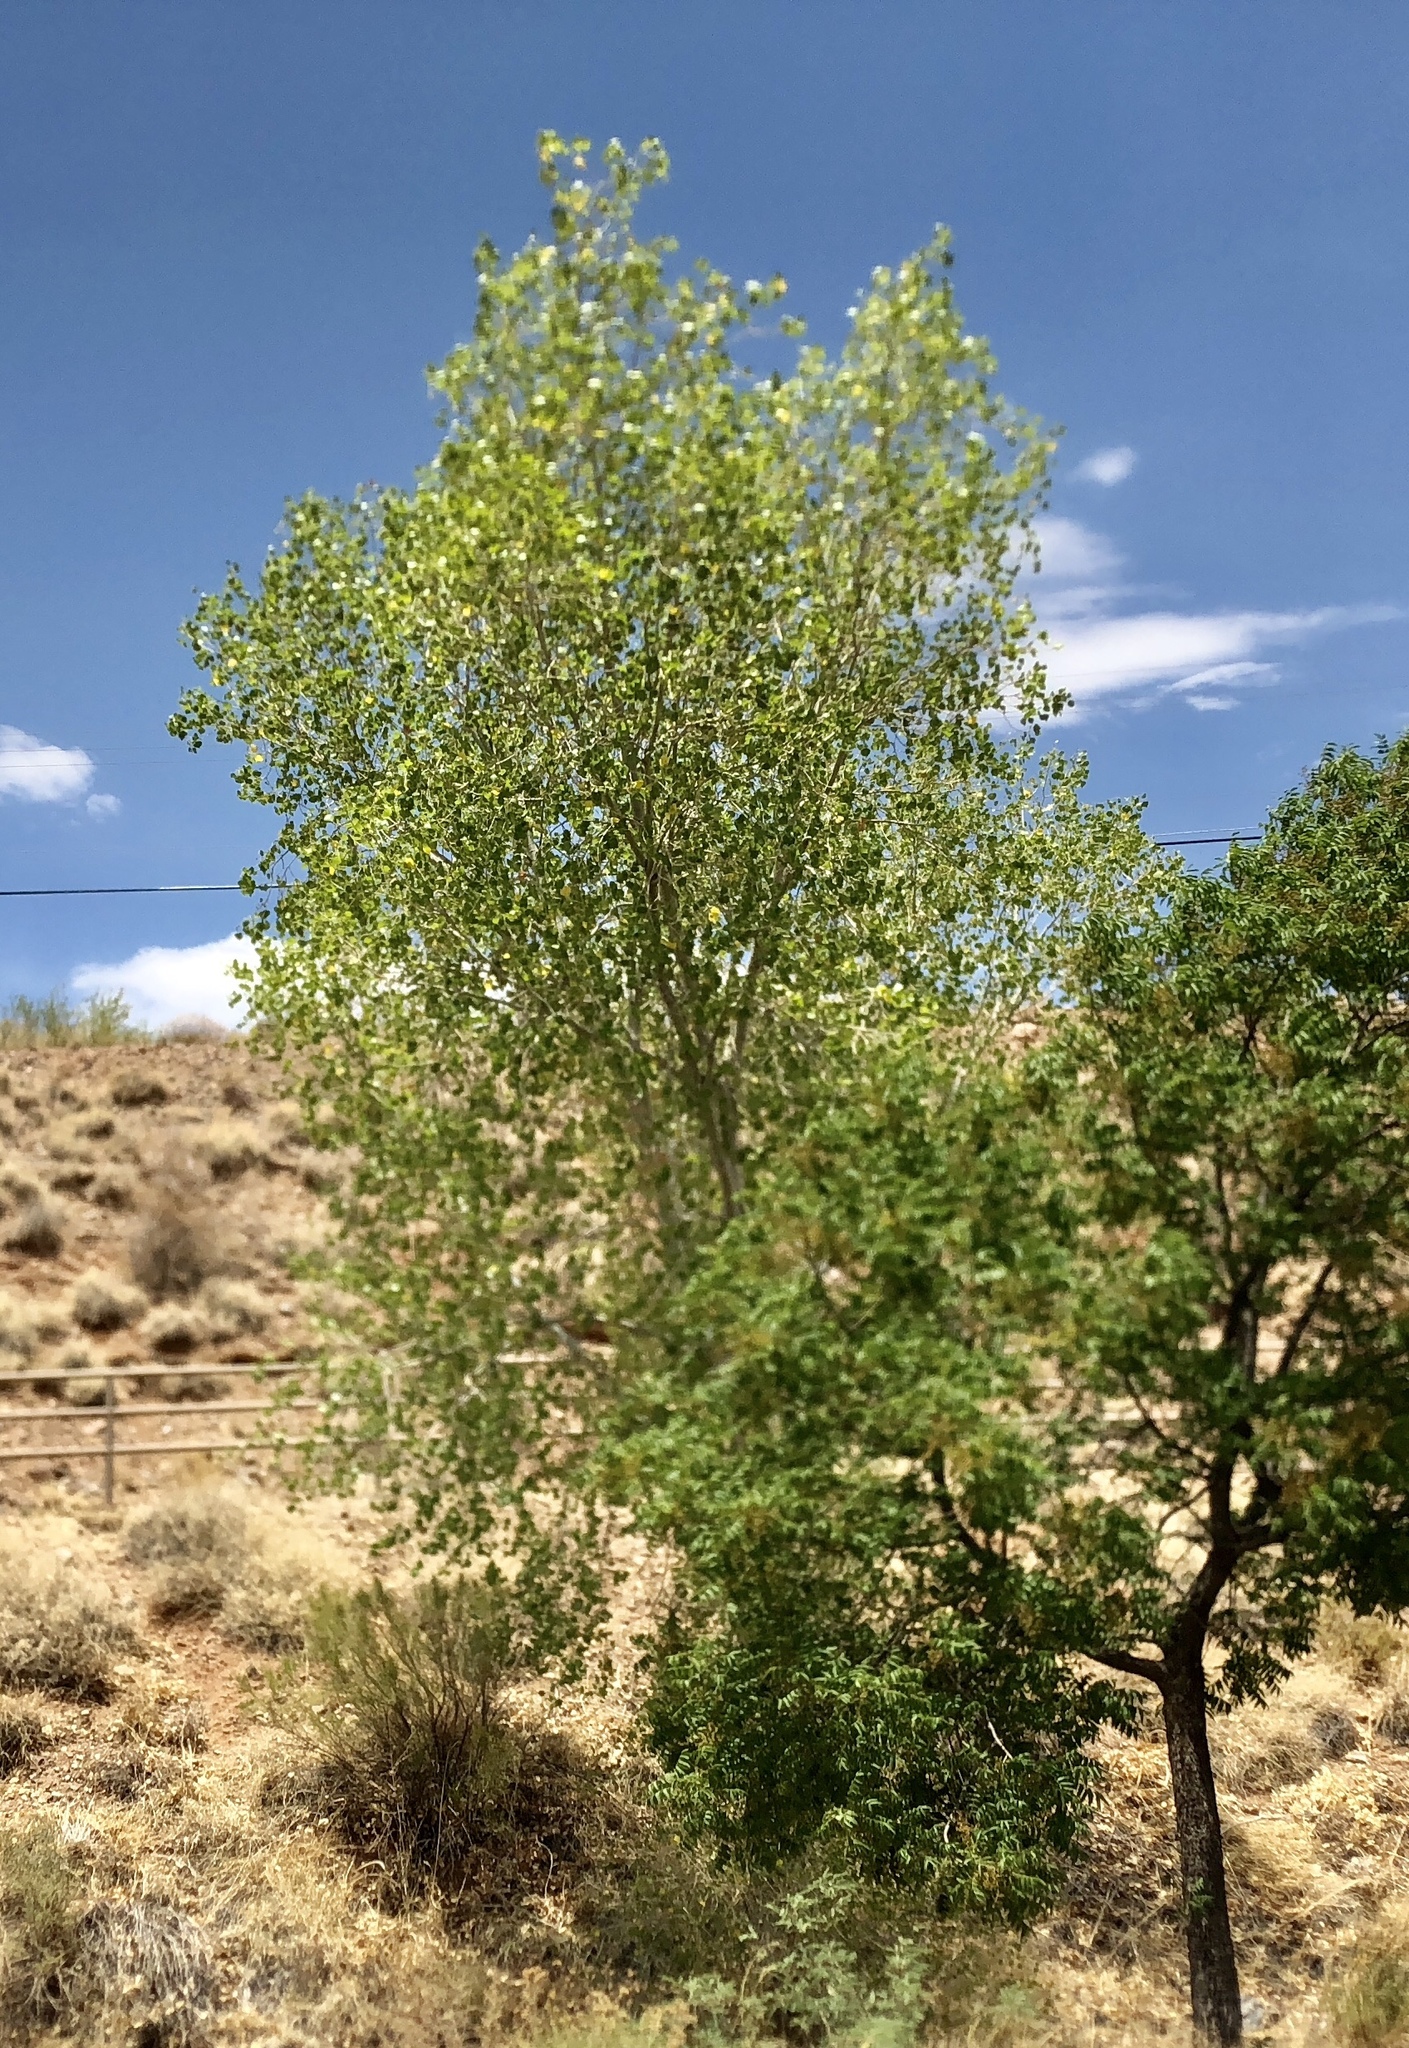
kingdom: Plantae
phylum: Tracheophyta
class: Magnoliopsida
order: Malpighiales
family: Salicaceae
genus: Populus
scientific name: Populus fremontii
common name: Fremont's cottonwood
